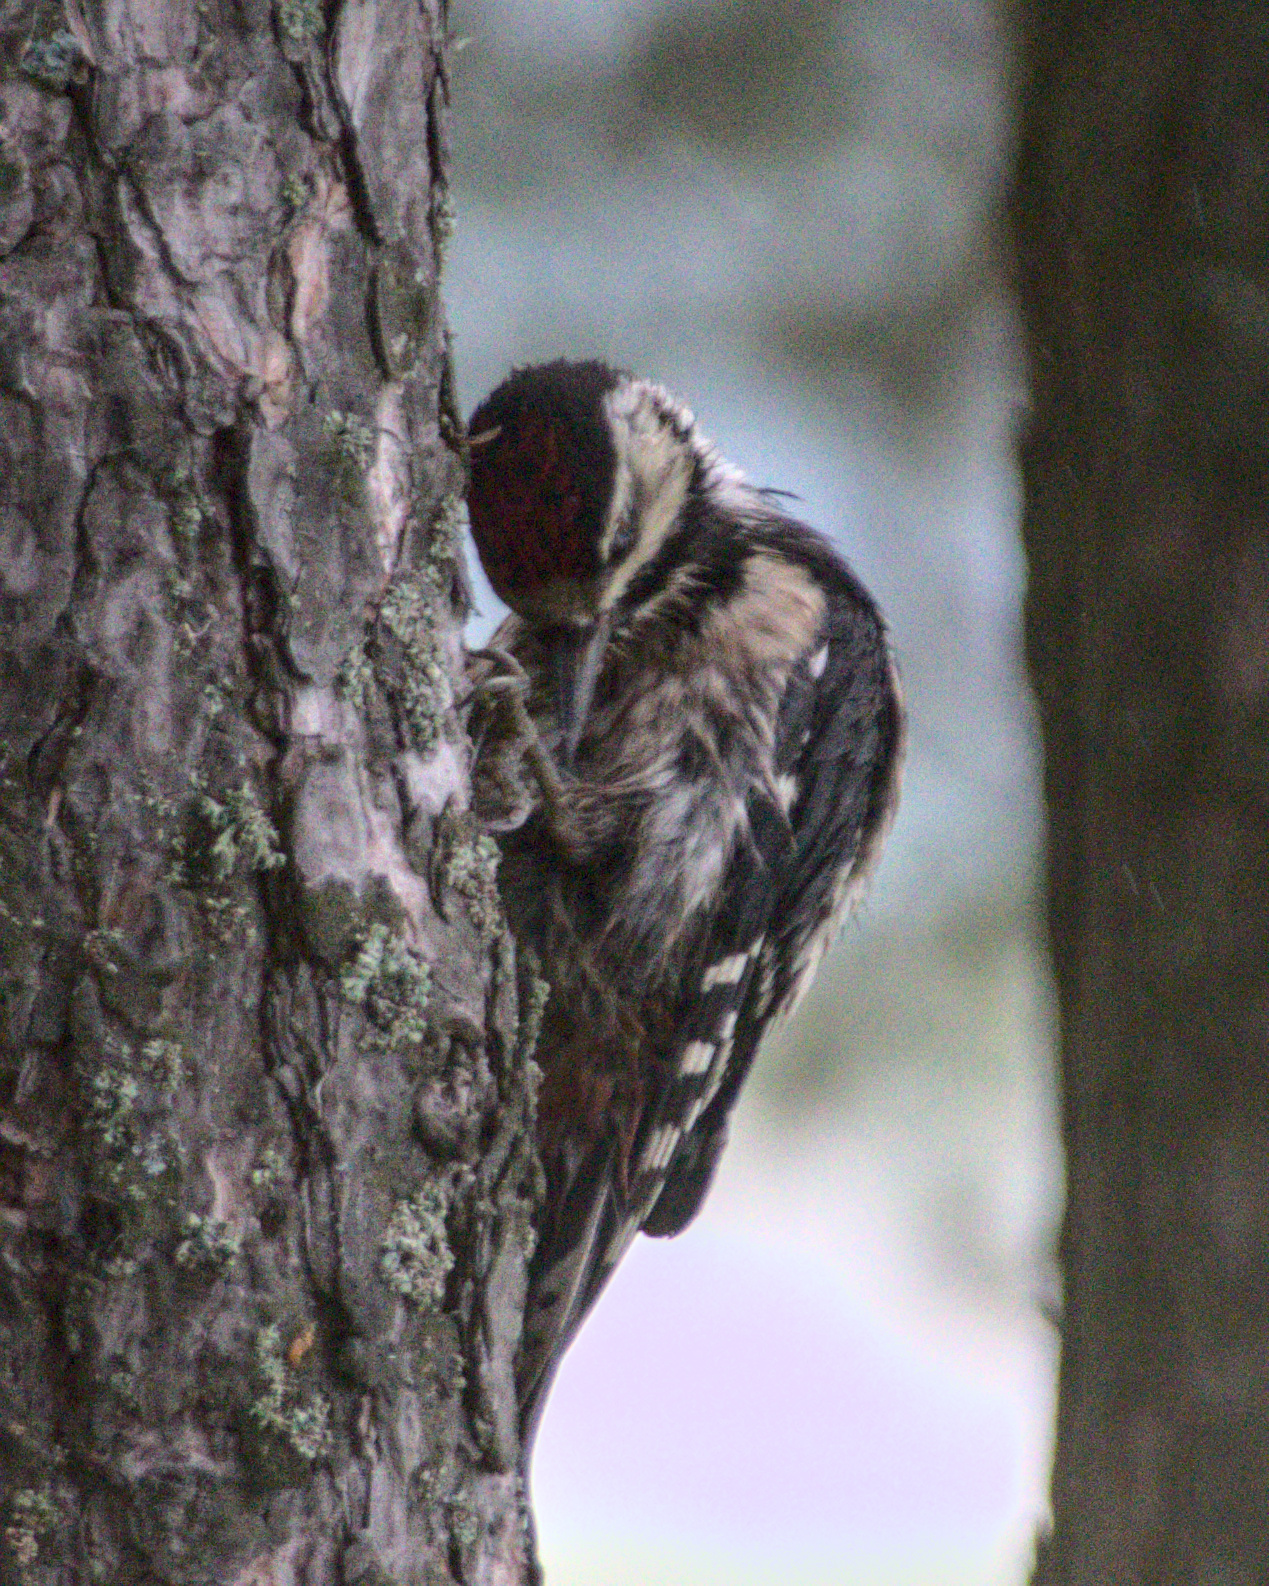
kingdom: Animalia
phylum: Chordata
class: Aves
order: Piciformes
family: Picidae
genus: Dendrocopos
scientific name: Dendrocopos major
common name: Great spotted woodpecker
